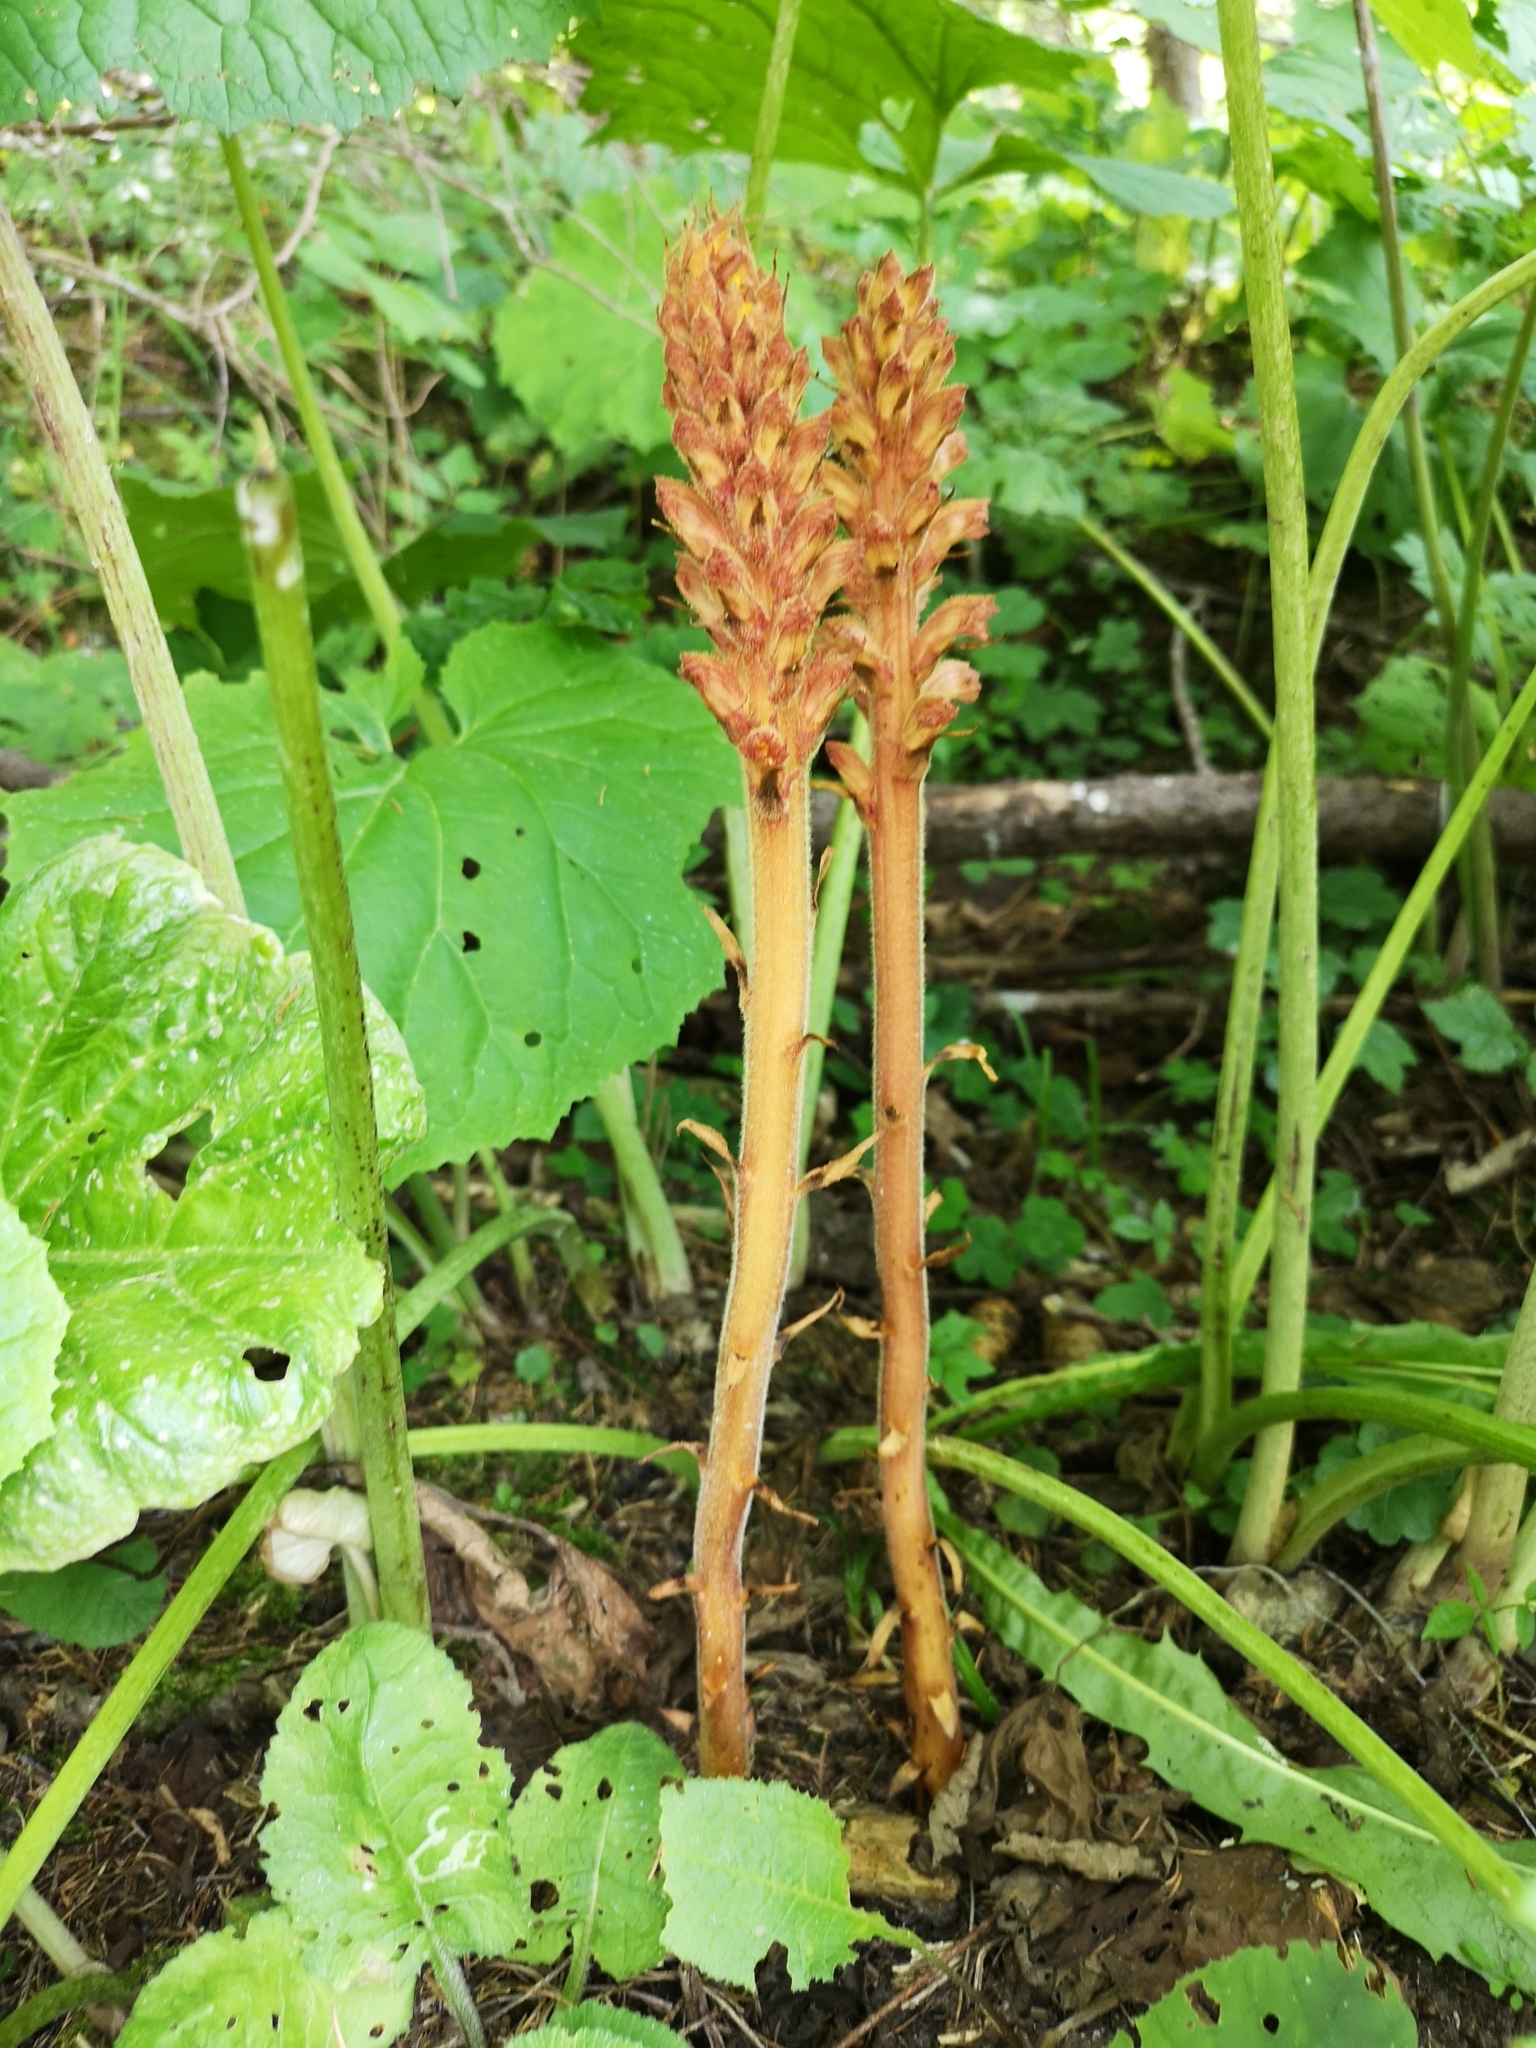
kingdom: Plantae
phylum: Tracheophyta
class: Magnoliopsida
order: Lamiales
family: Orobanchaceae
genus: Orobanche
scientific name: Orobanche flava
